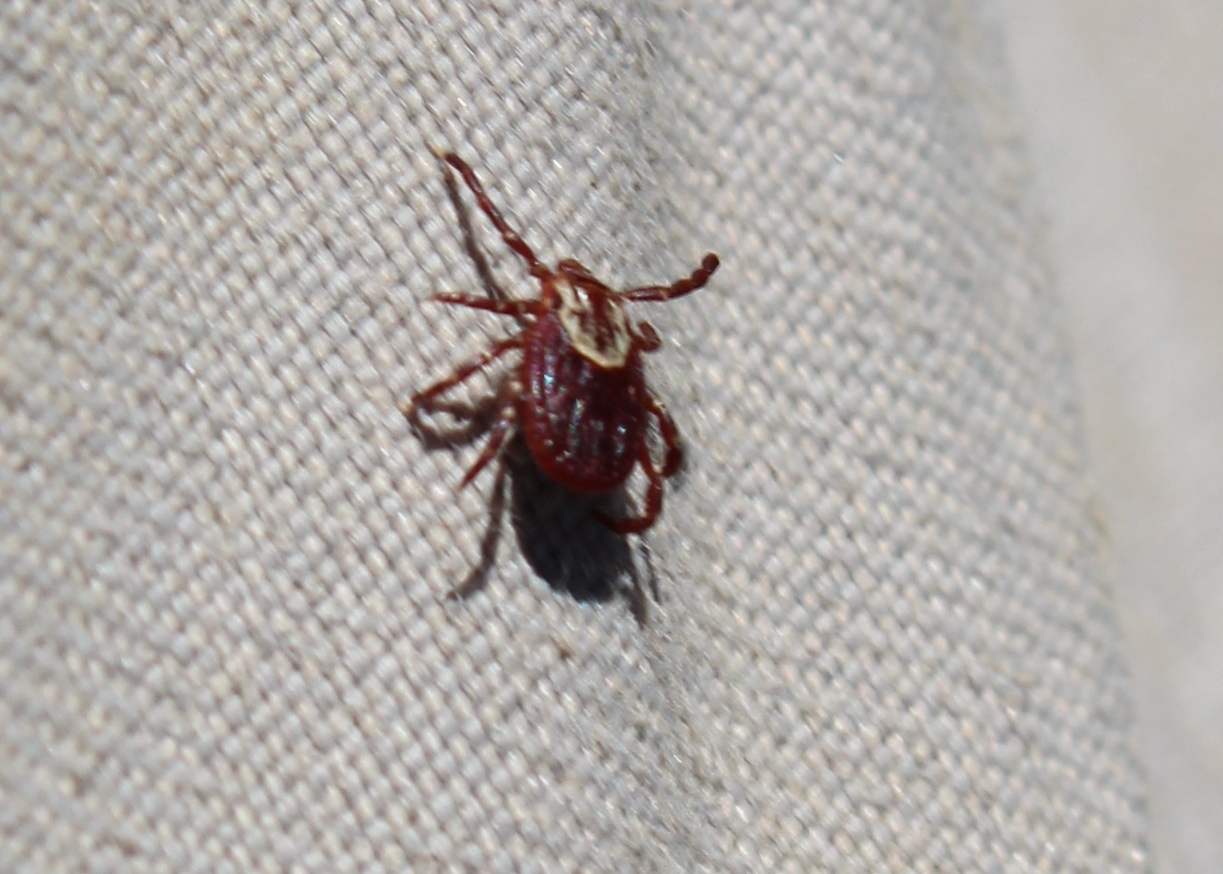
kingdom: Animalia
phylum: Arthropoda
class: Arachnida
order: Ixodida
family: Ixodidae
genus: Dermacentor
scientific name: Dermacentor variabilis
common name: American dog tick
